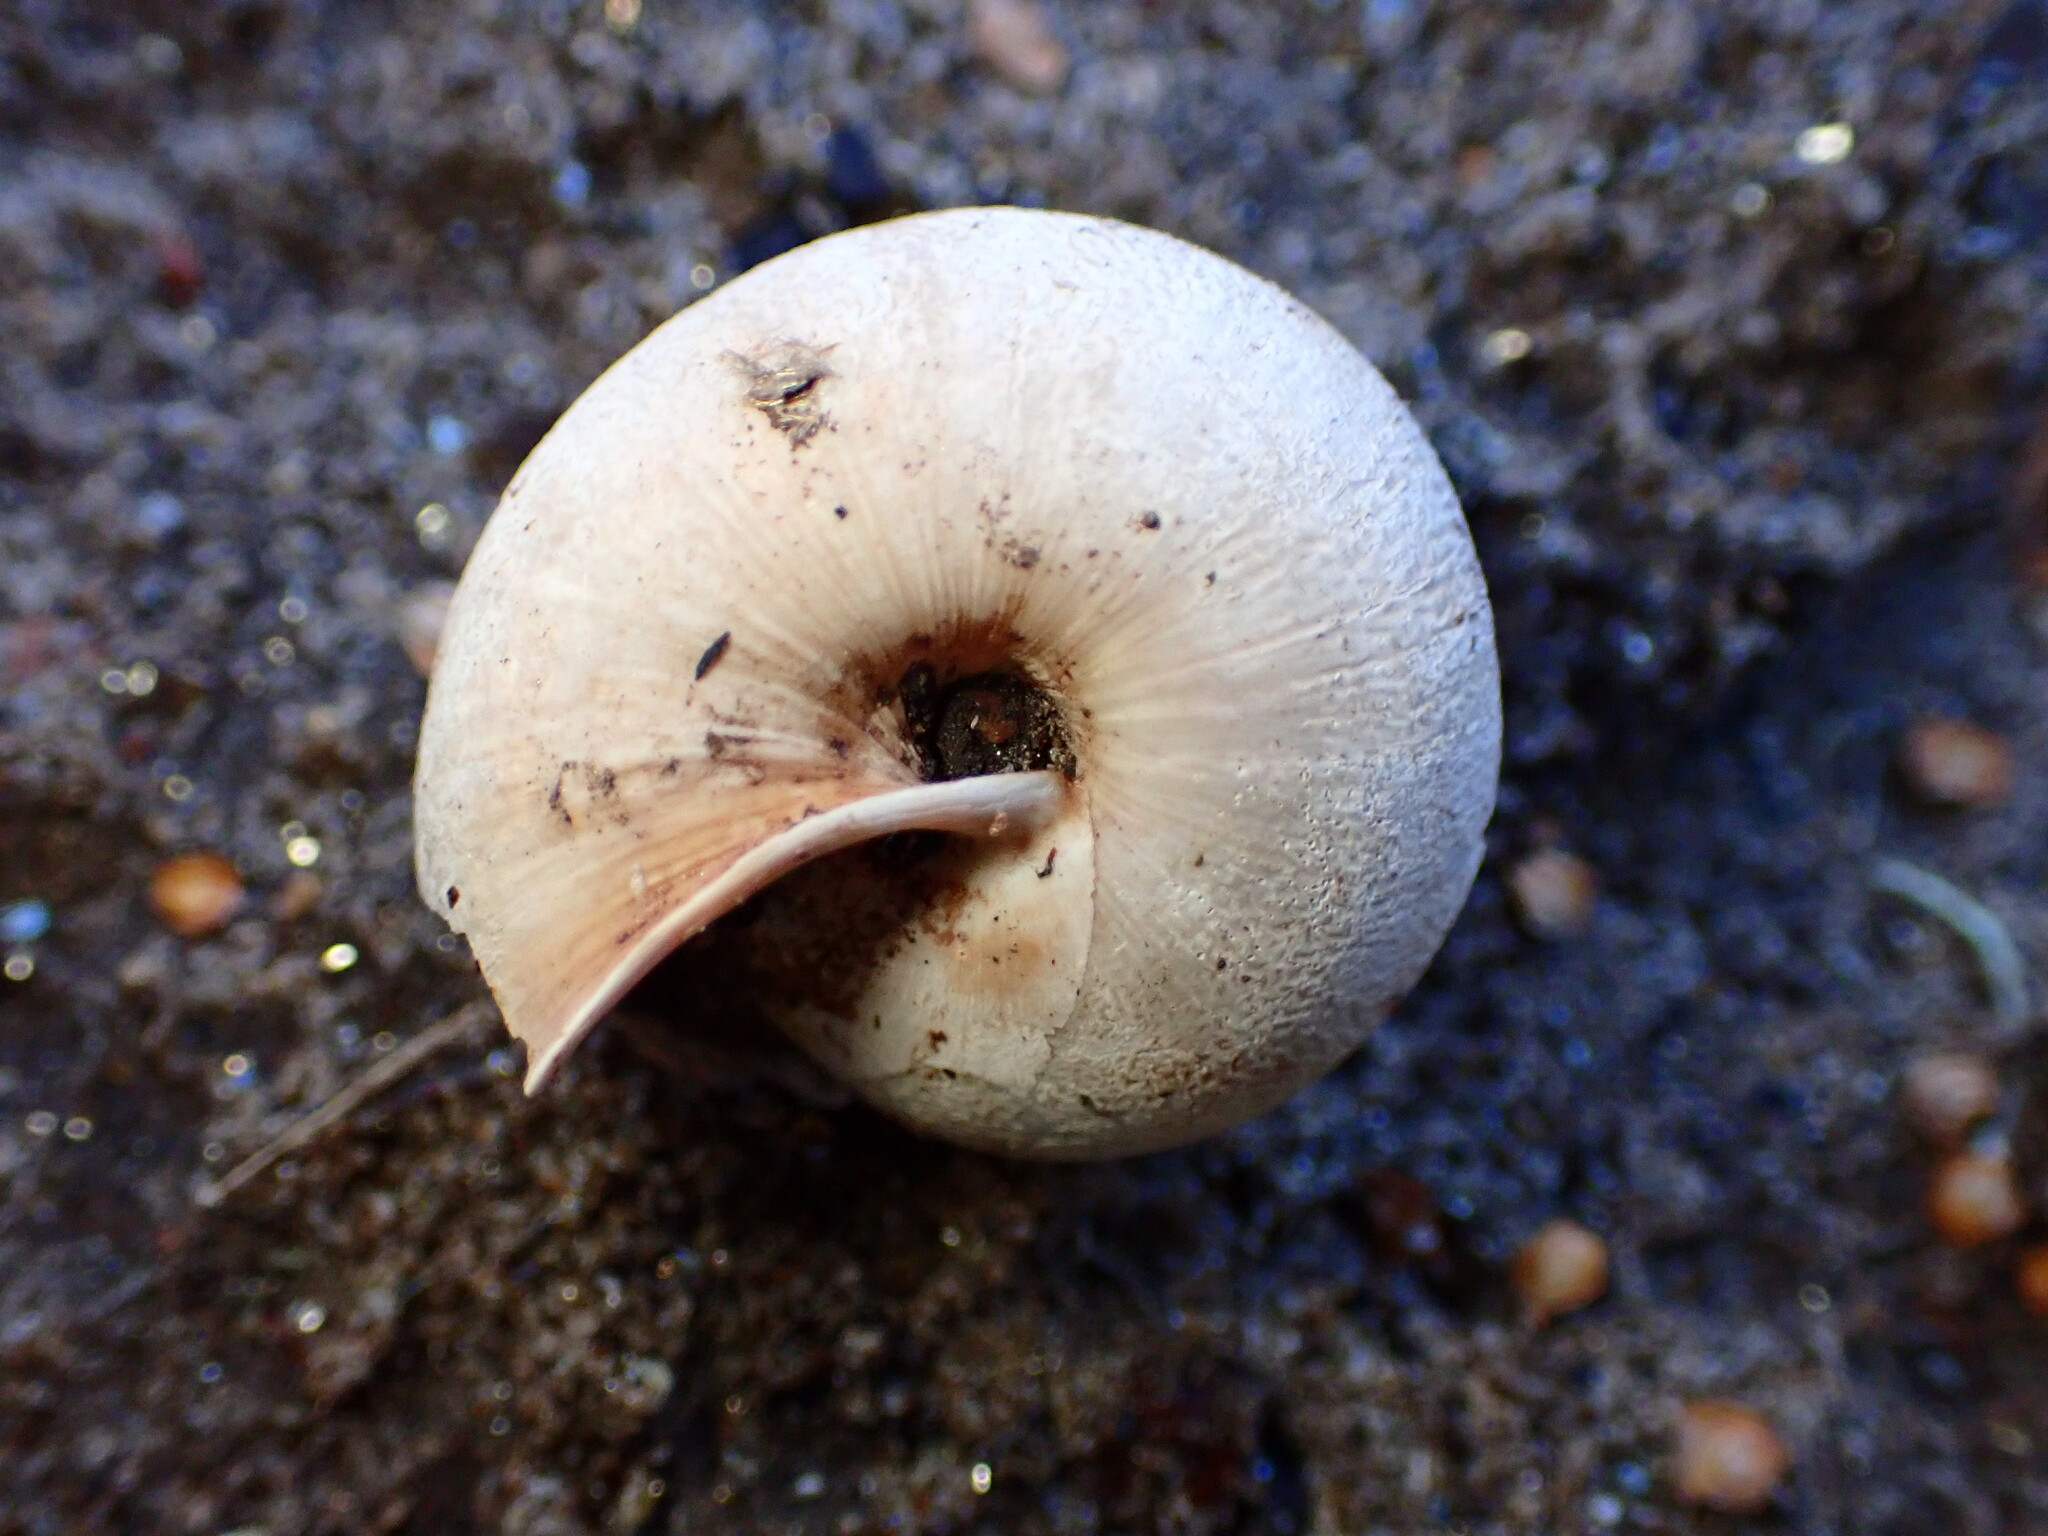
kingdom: Animalia
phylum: Mollusca
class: Gastropoda
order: Stylommatophora
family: Xanthonychidae
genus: Helminthoglypta
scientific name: Helminthoglypta exarata
